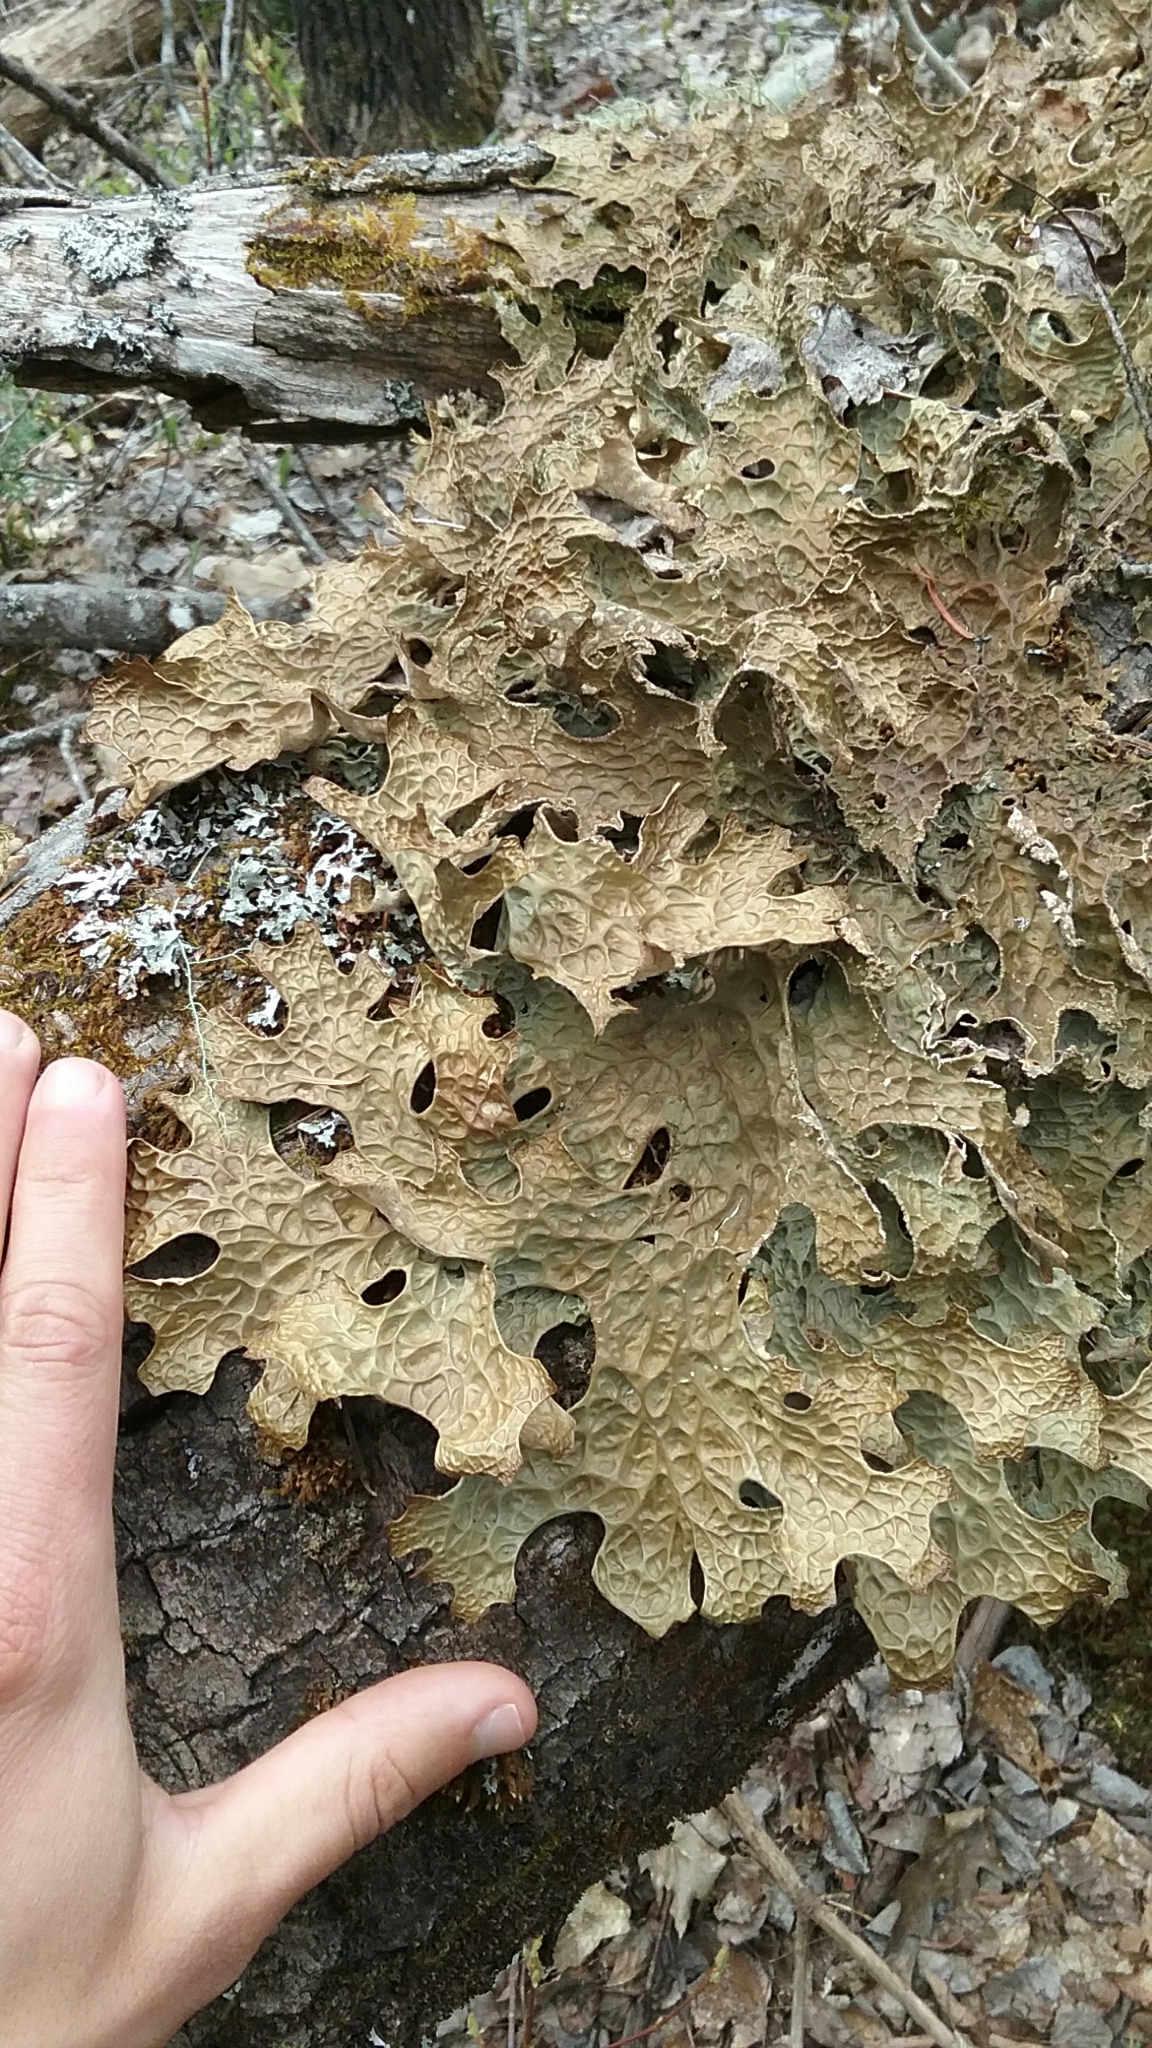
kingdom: Fungi
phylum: Ascomycota
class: Lecanoromycetes
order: Peltigerales
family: Lobariaceae
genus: Lobaria
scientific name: Lobaria pulmonaria
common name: Lungwort
